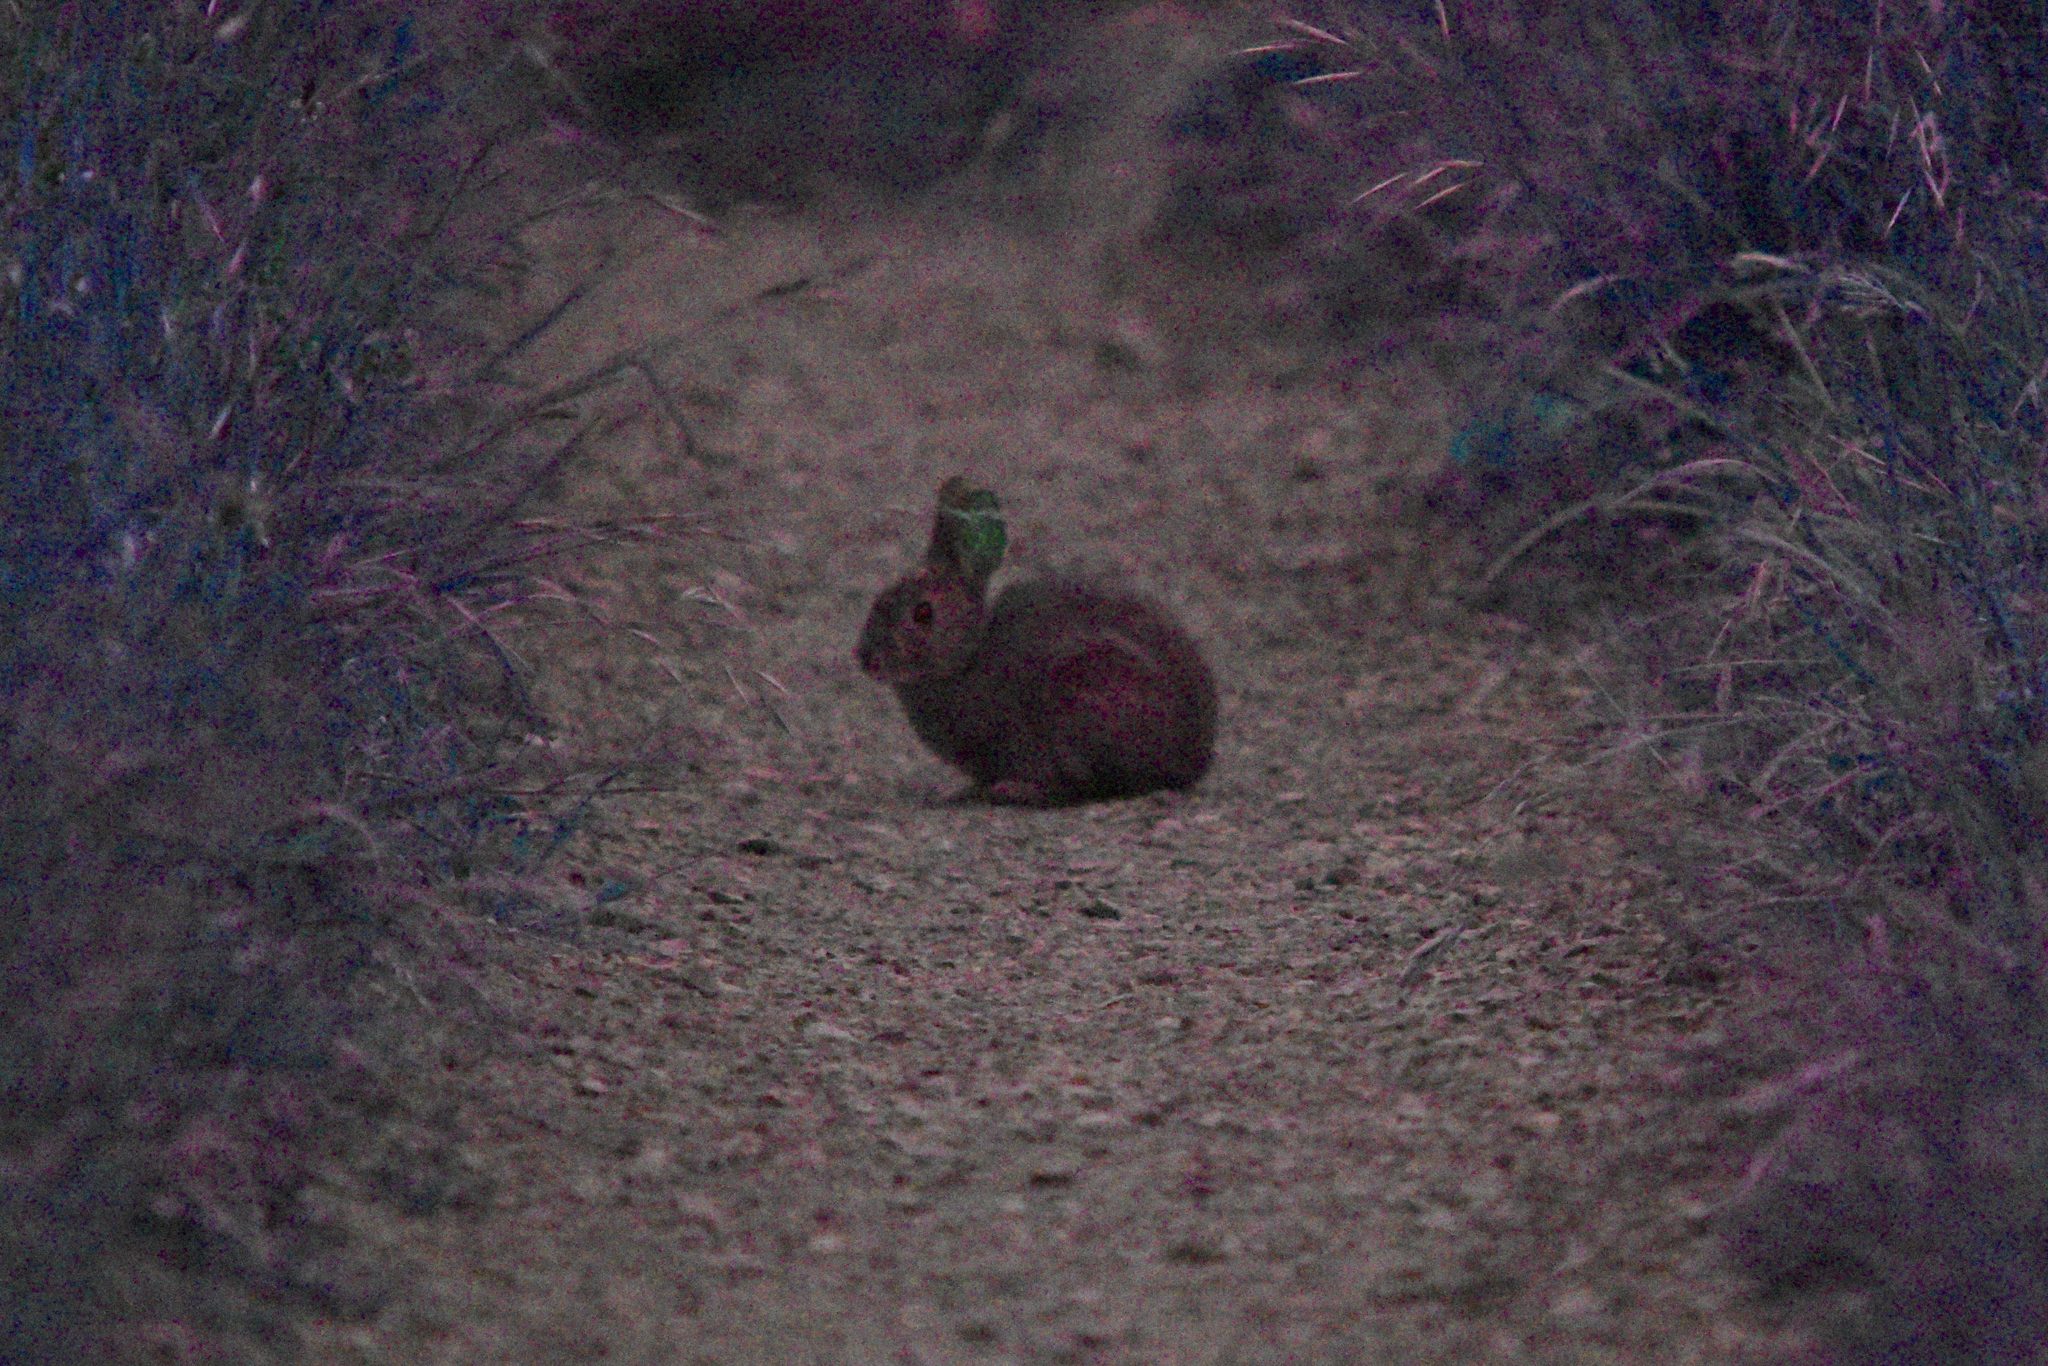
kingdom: Animalia
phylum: Chordata
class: Mammalia
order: Lagomorpha
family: Leporidae
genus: Sylvilagus
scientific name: Sylvilagus bachmani
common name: Brush rabbit
